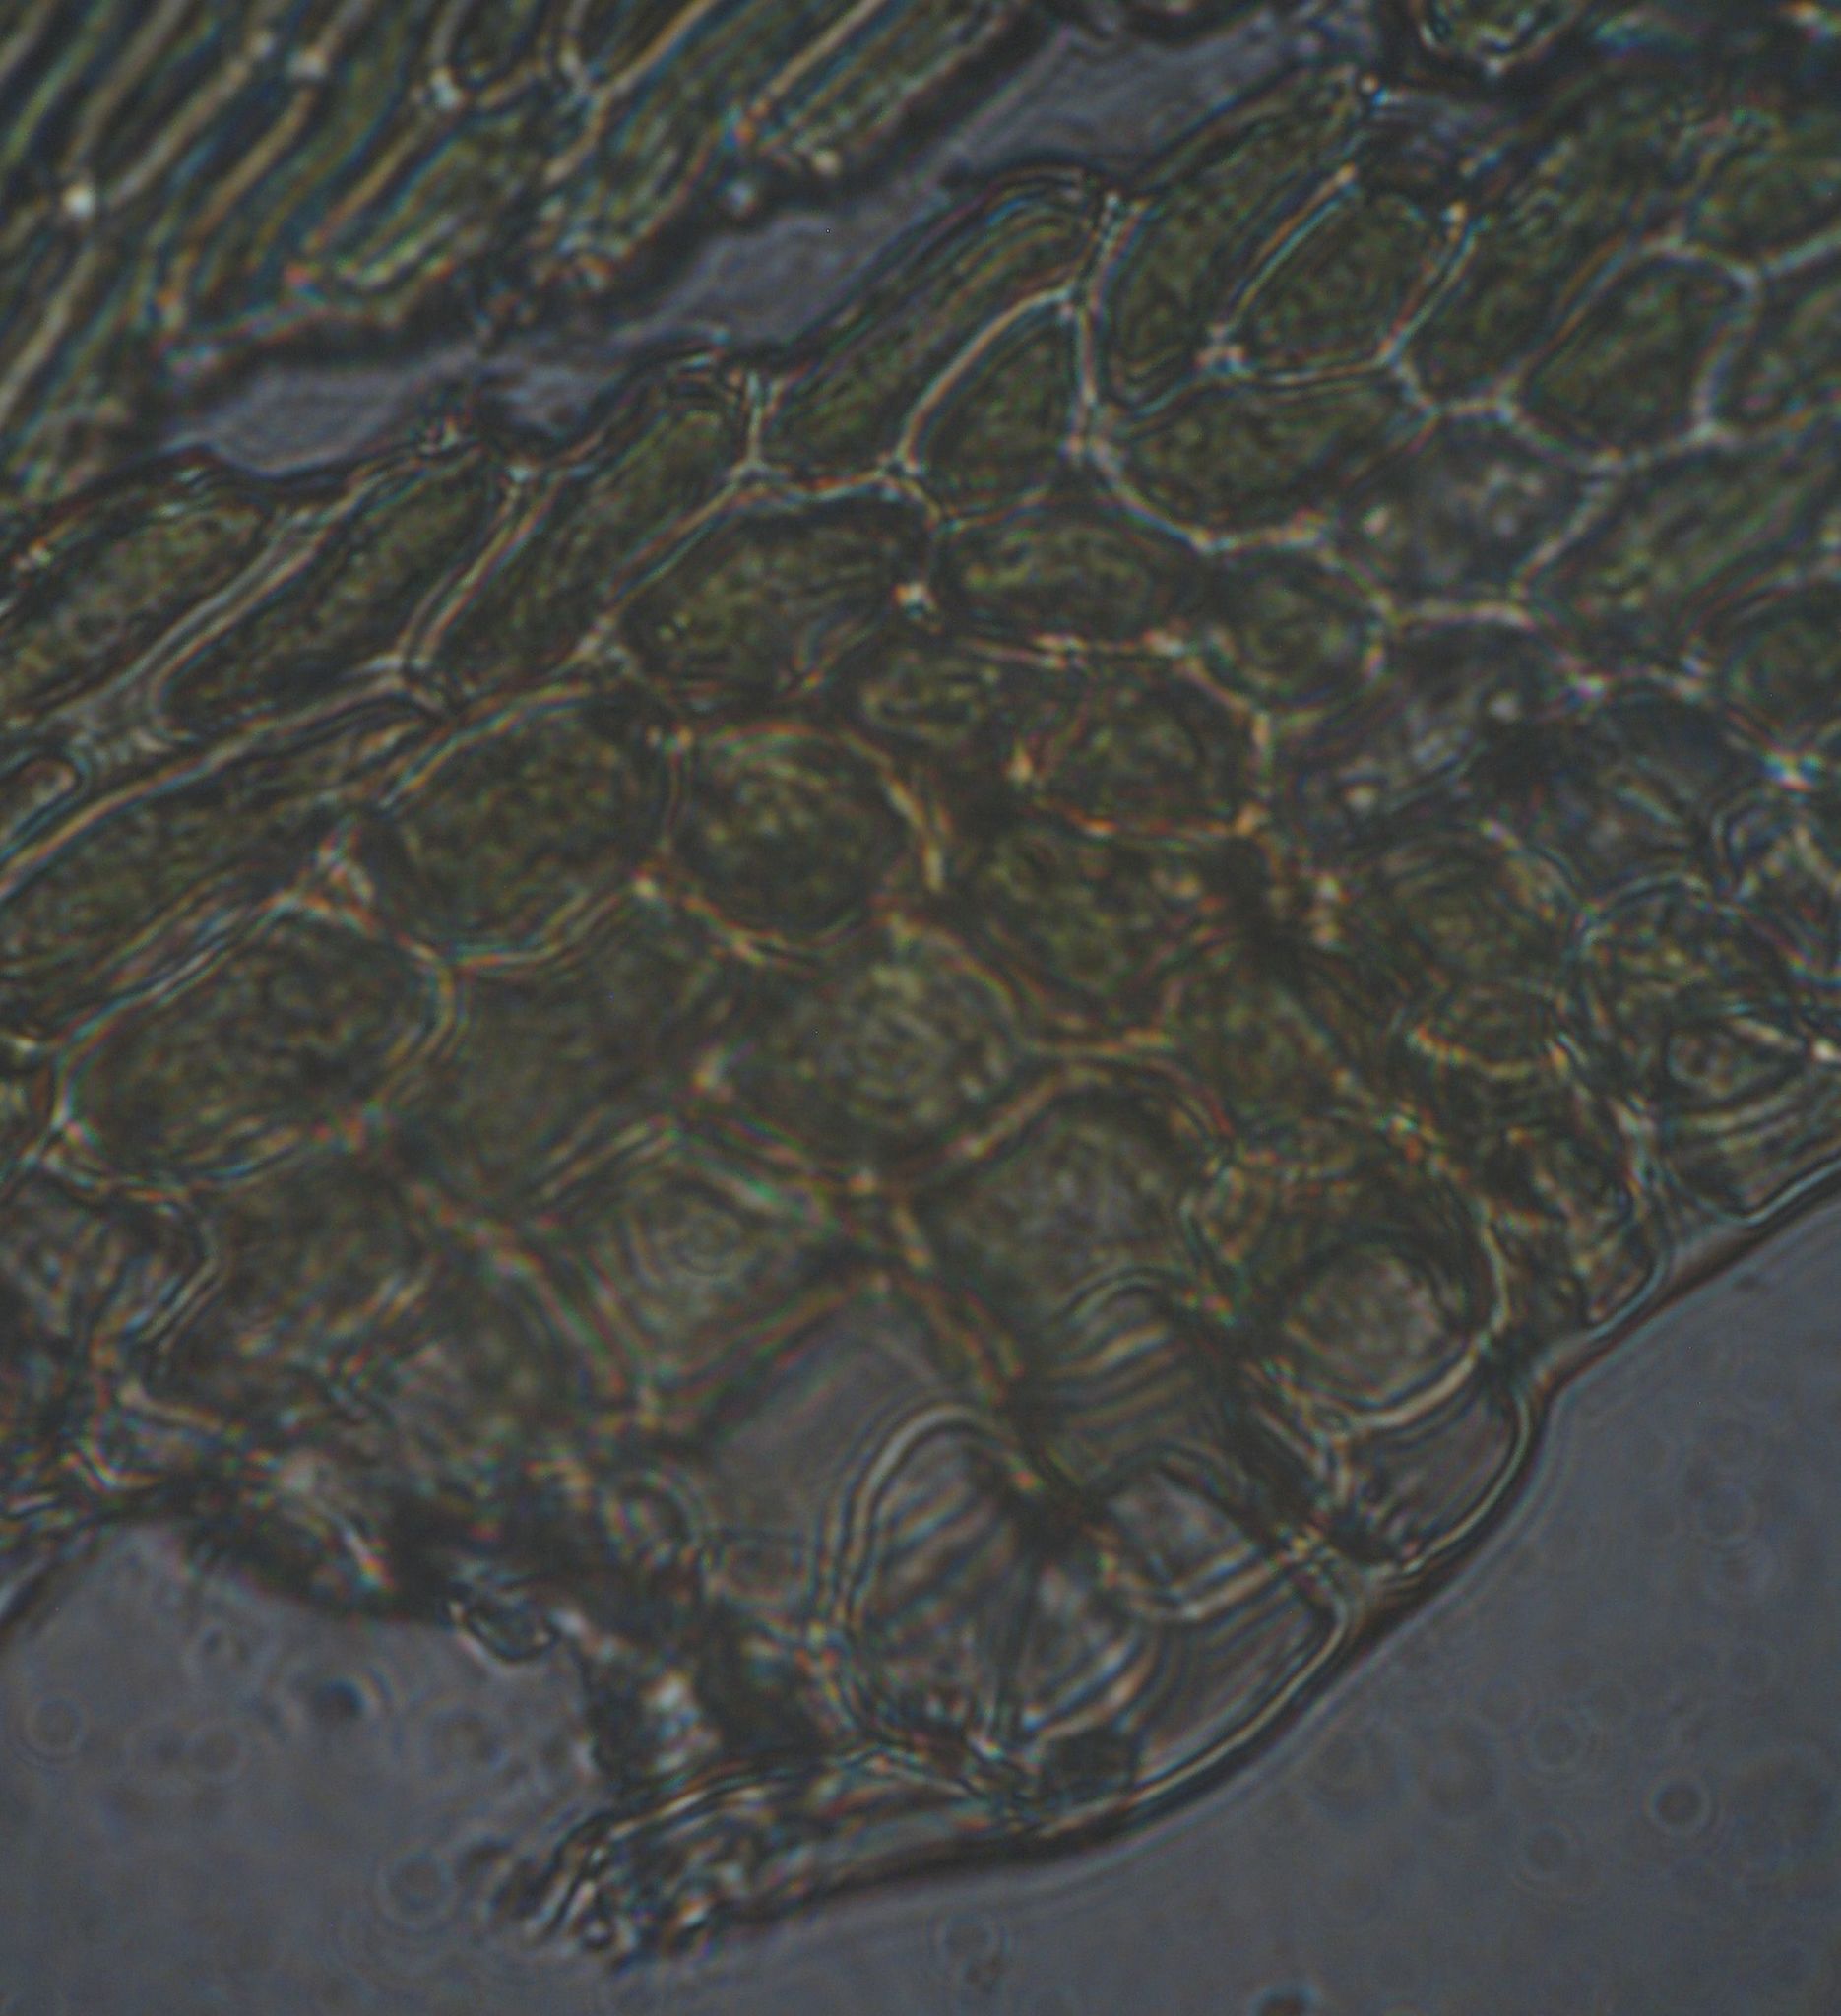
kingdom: Plantae
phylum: Bryophyta
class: Bryopsida
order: Hypnales
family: Hypnaceae
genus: Hypnum
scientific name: Hypnum cupressiforme
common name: Cypress-leaved plait-moss
